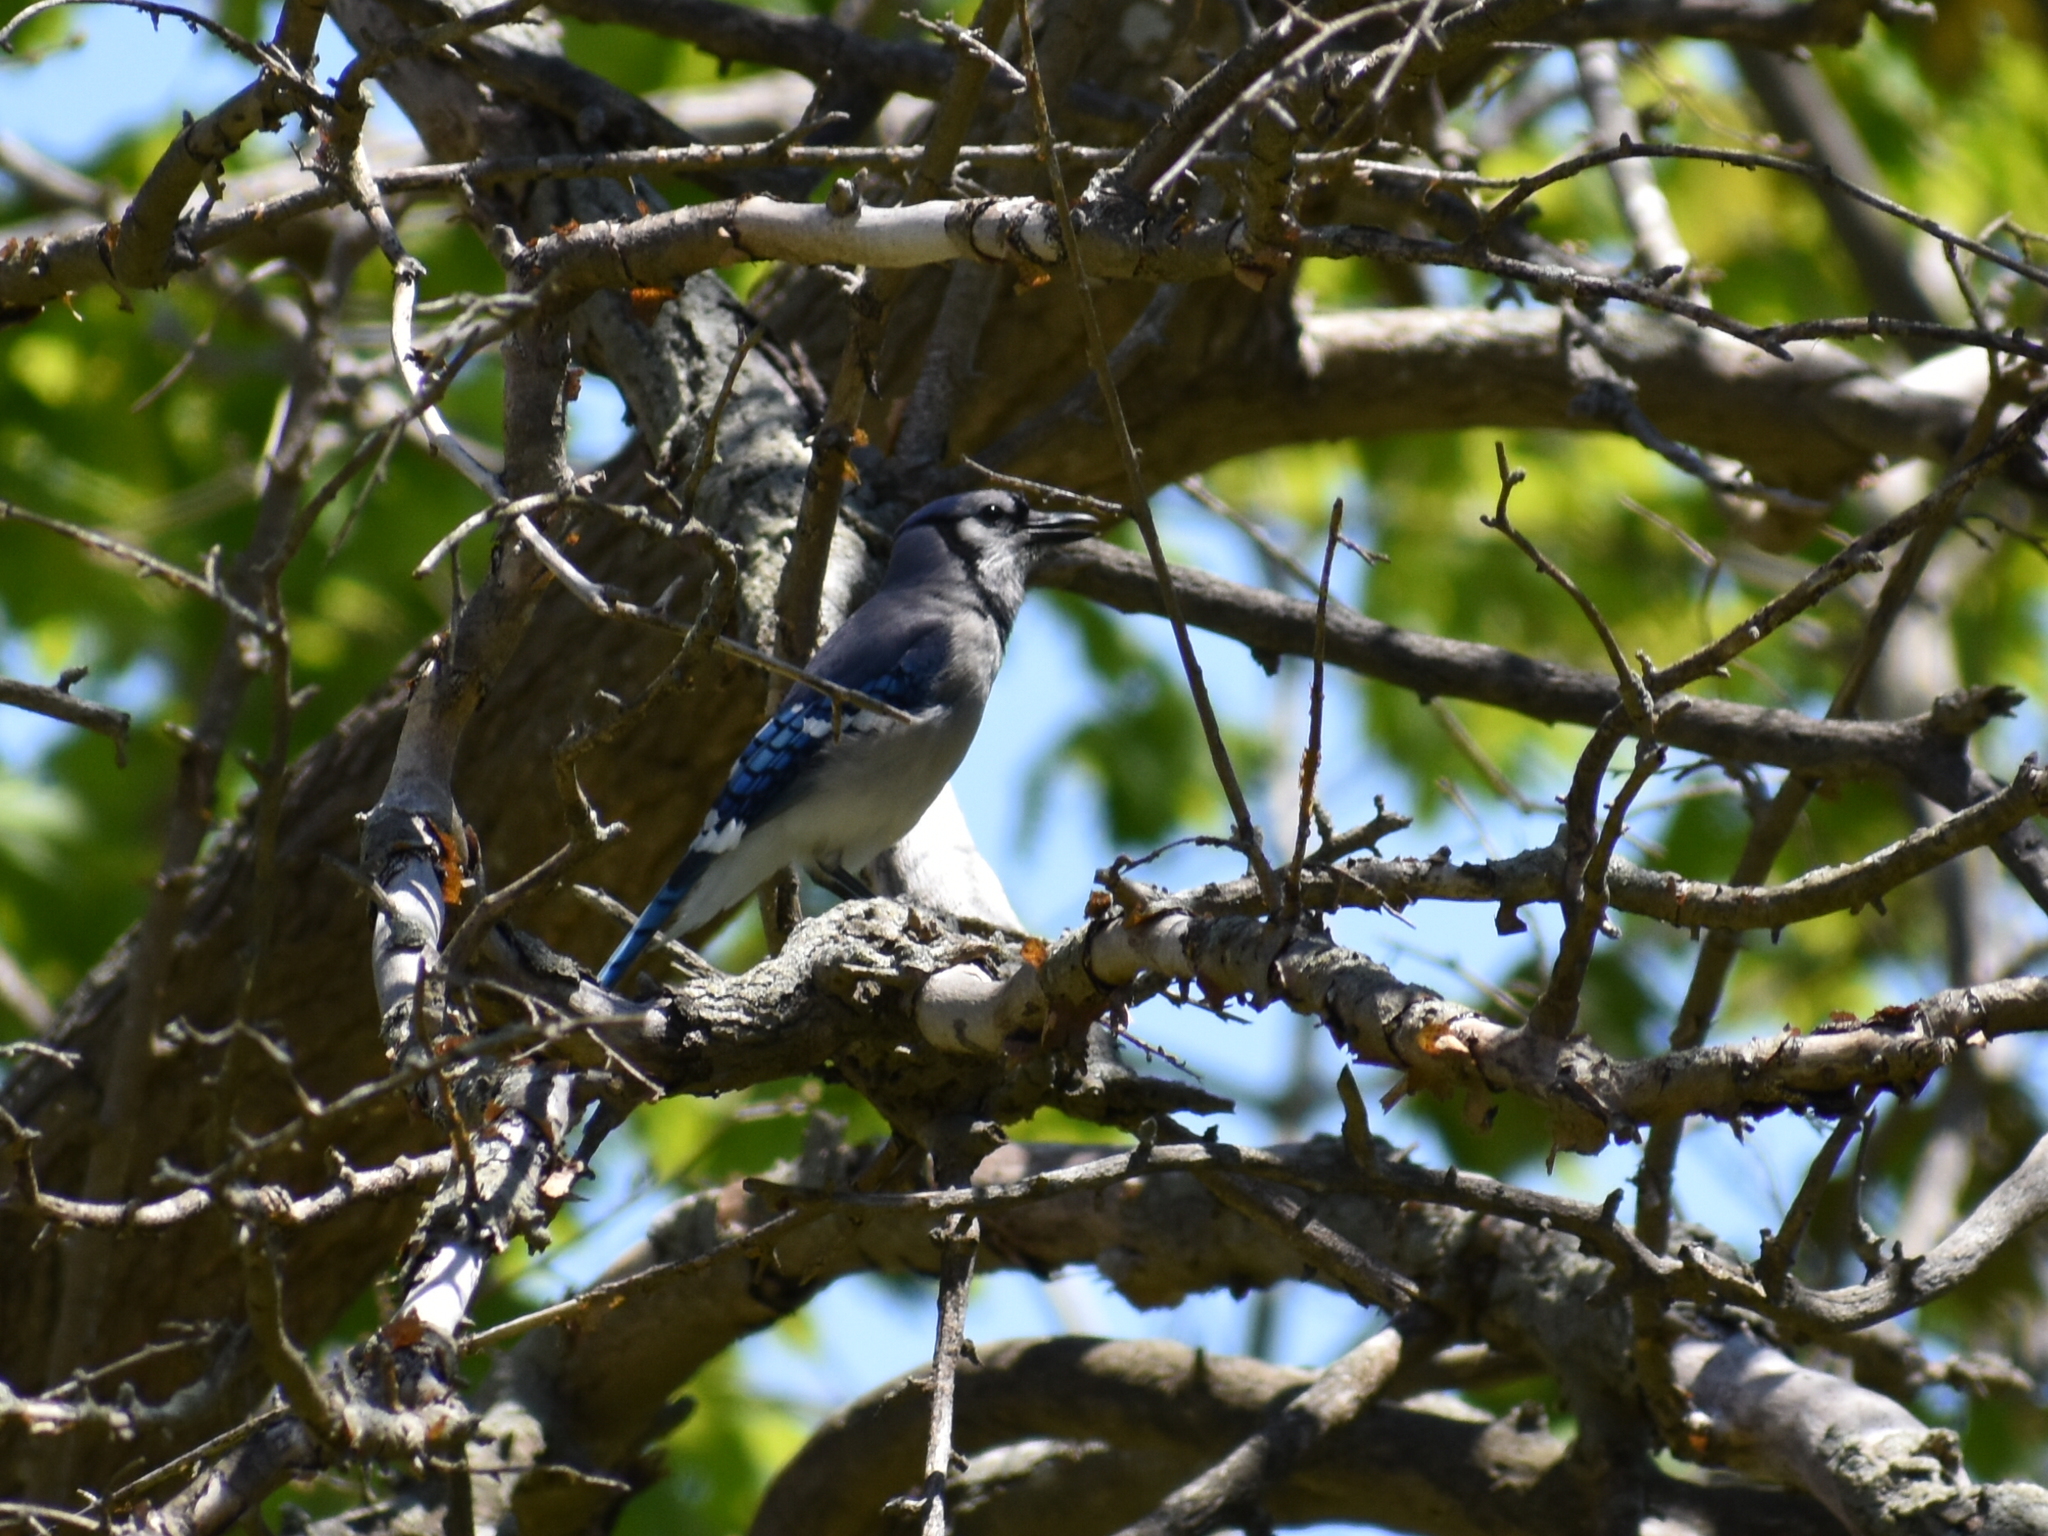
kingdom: Animalia
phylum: Chordata
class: Aves
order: Passeriformes
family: Corvidae
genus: Cyanocitta
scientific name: Cyanocitta cristata
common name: Blue jay
